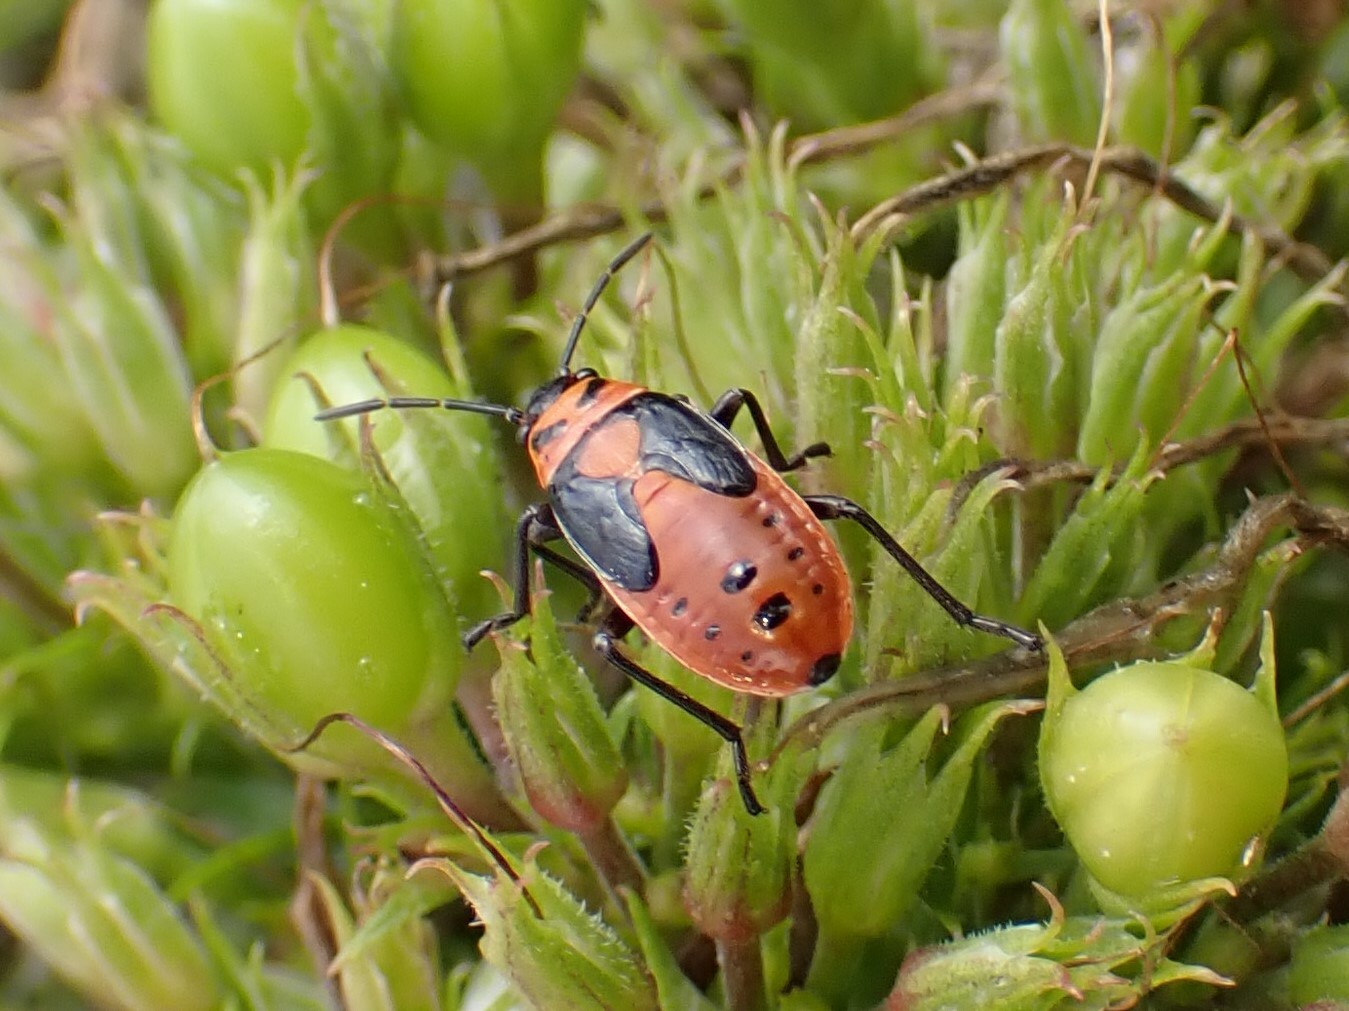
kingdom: Animalia
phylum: Arthropoda
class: Insecta
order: Hemiptera
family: Lygaeidae
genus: Lygaeus
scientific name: Lygaeus kalmii
